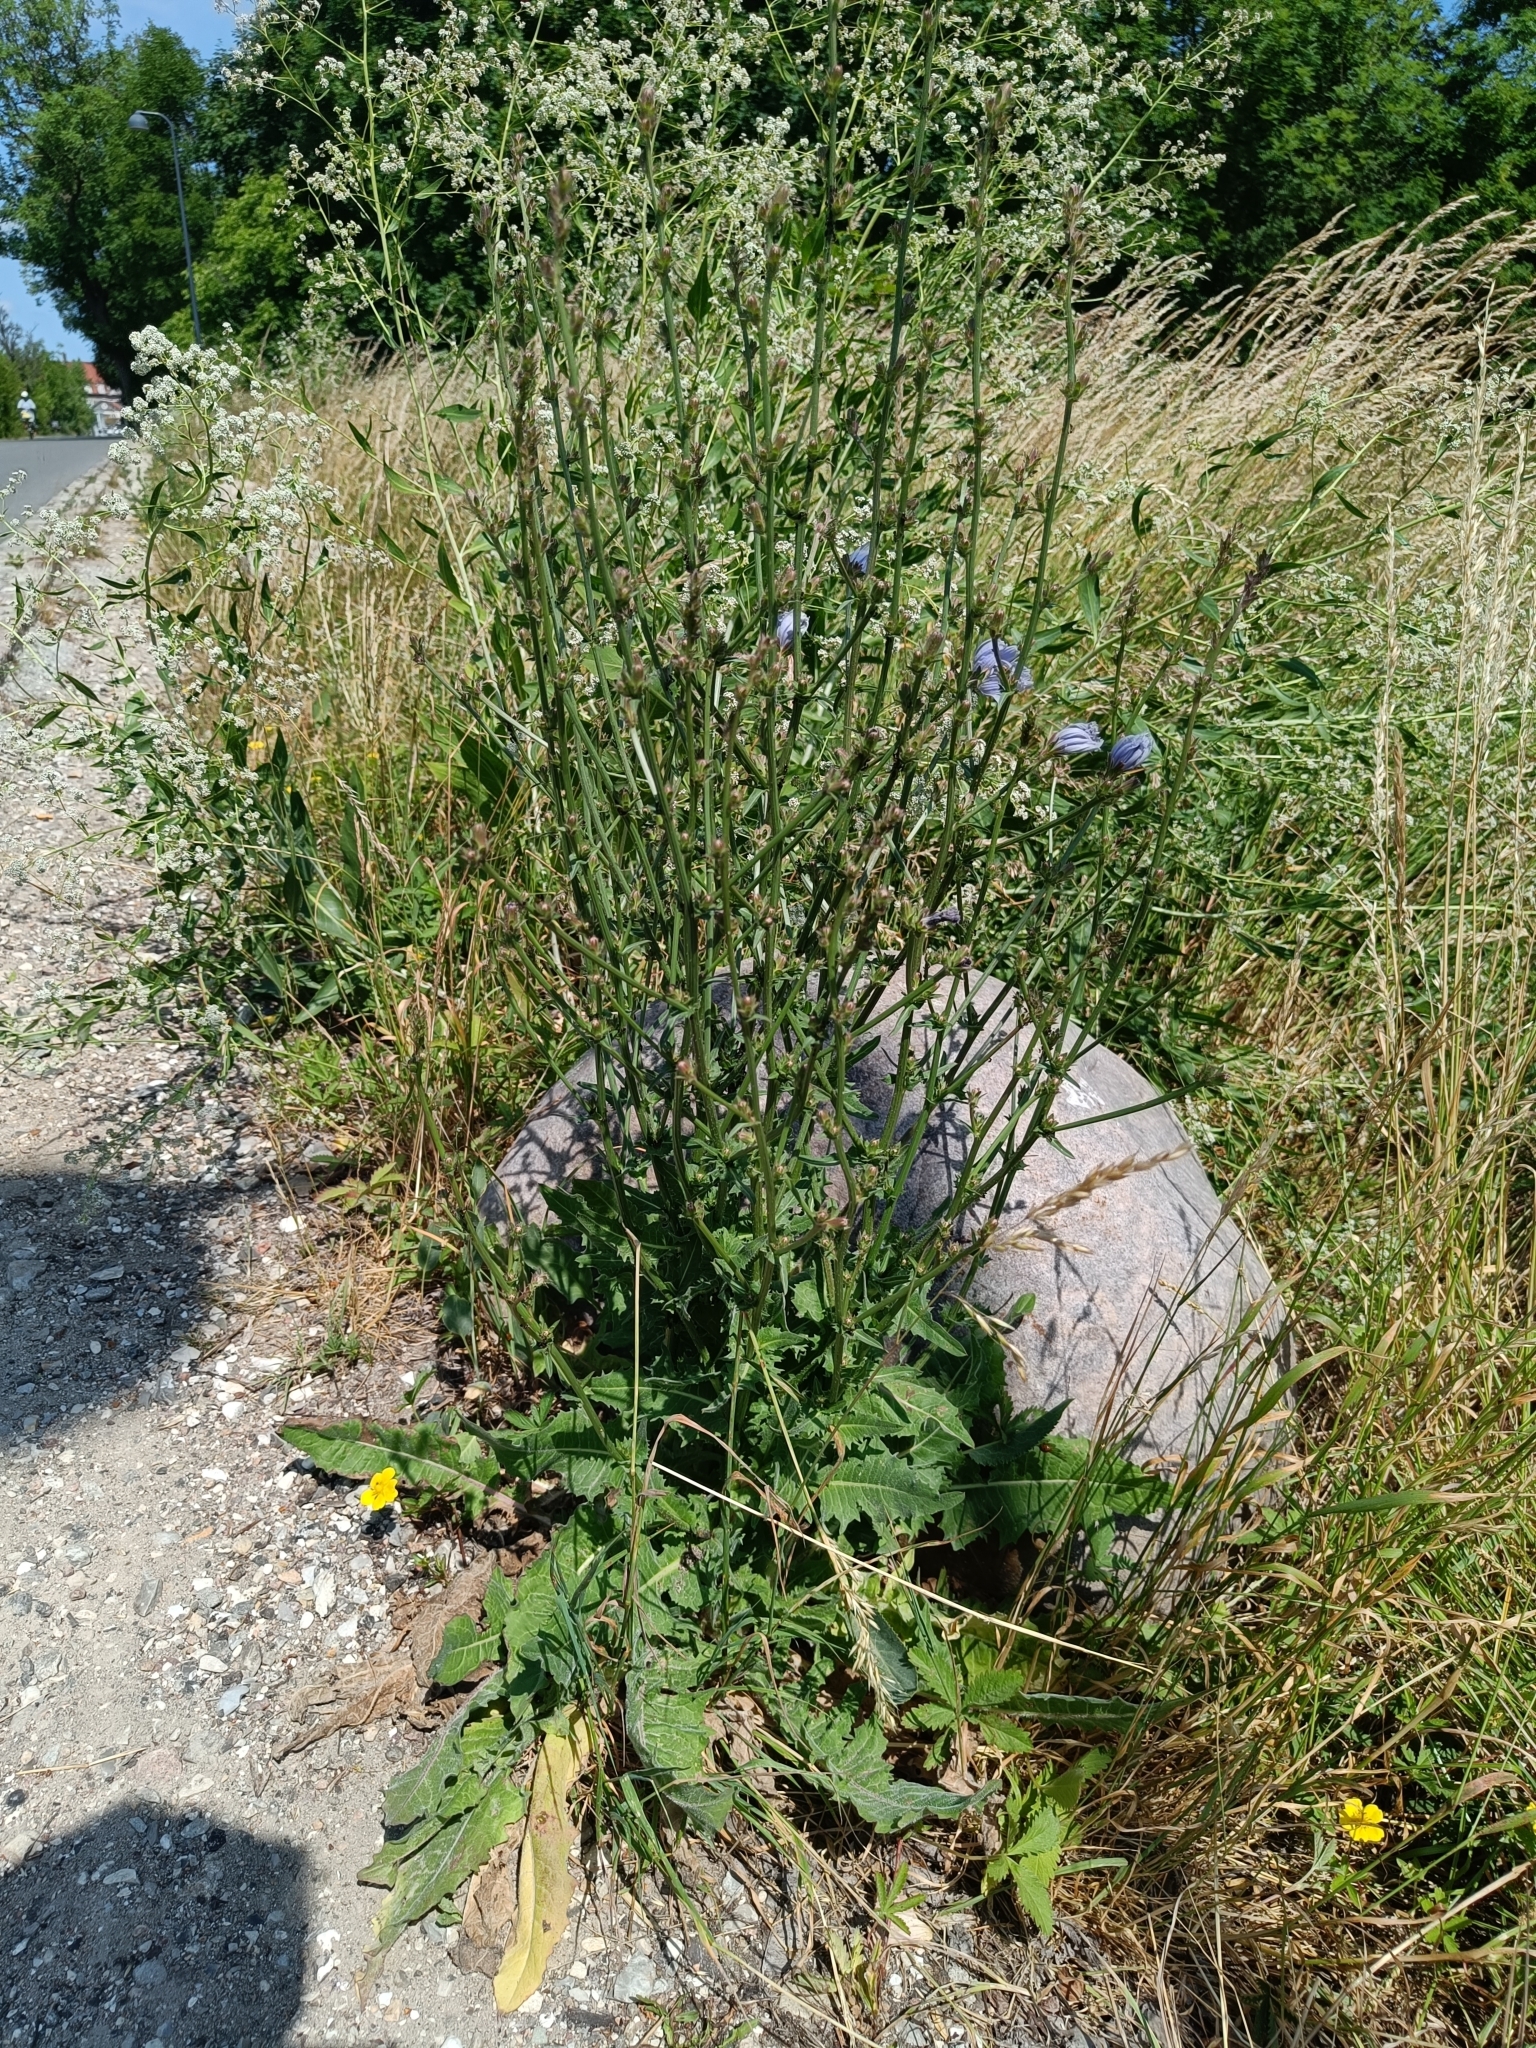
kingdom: Plantae
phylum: Tracheophyta
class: Magnoliopsida
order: Asterales
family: Asteraceae
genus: Cichorium
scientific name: Cichorium intybus
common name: Chicory
